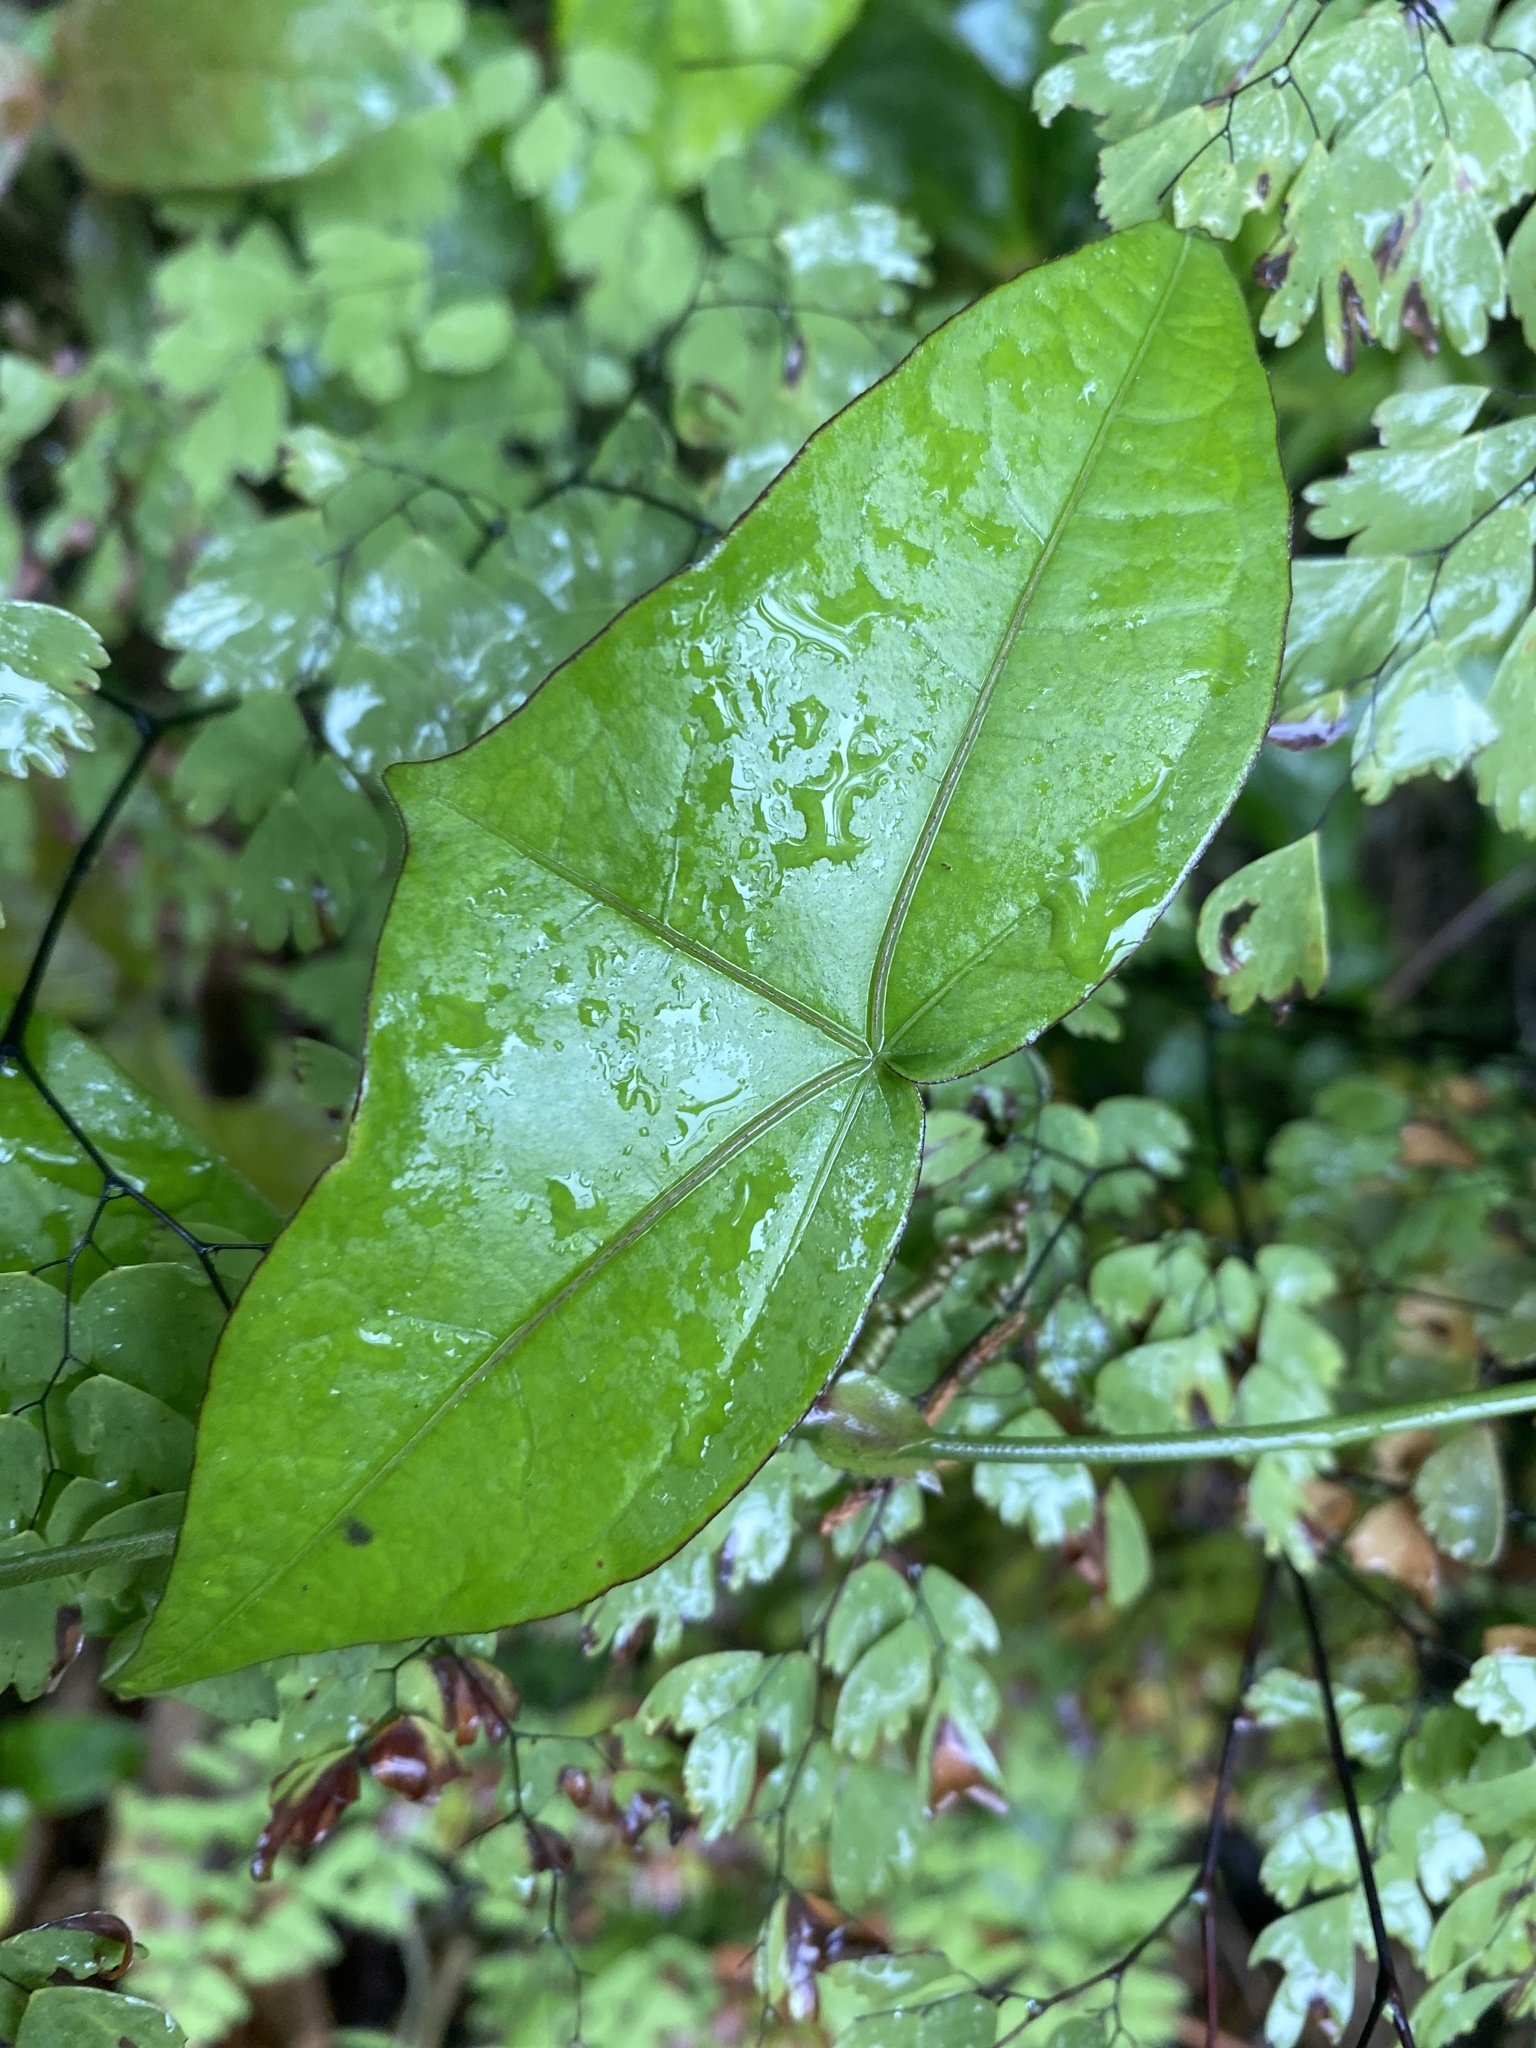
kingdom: Plantae
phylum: Tracheophyta
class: Magnoliopsida
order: Malpighiales
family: Passifloraceae
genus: Passiflora
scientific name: Passiflora eglandulosa
